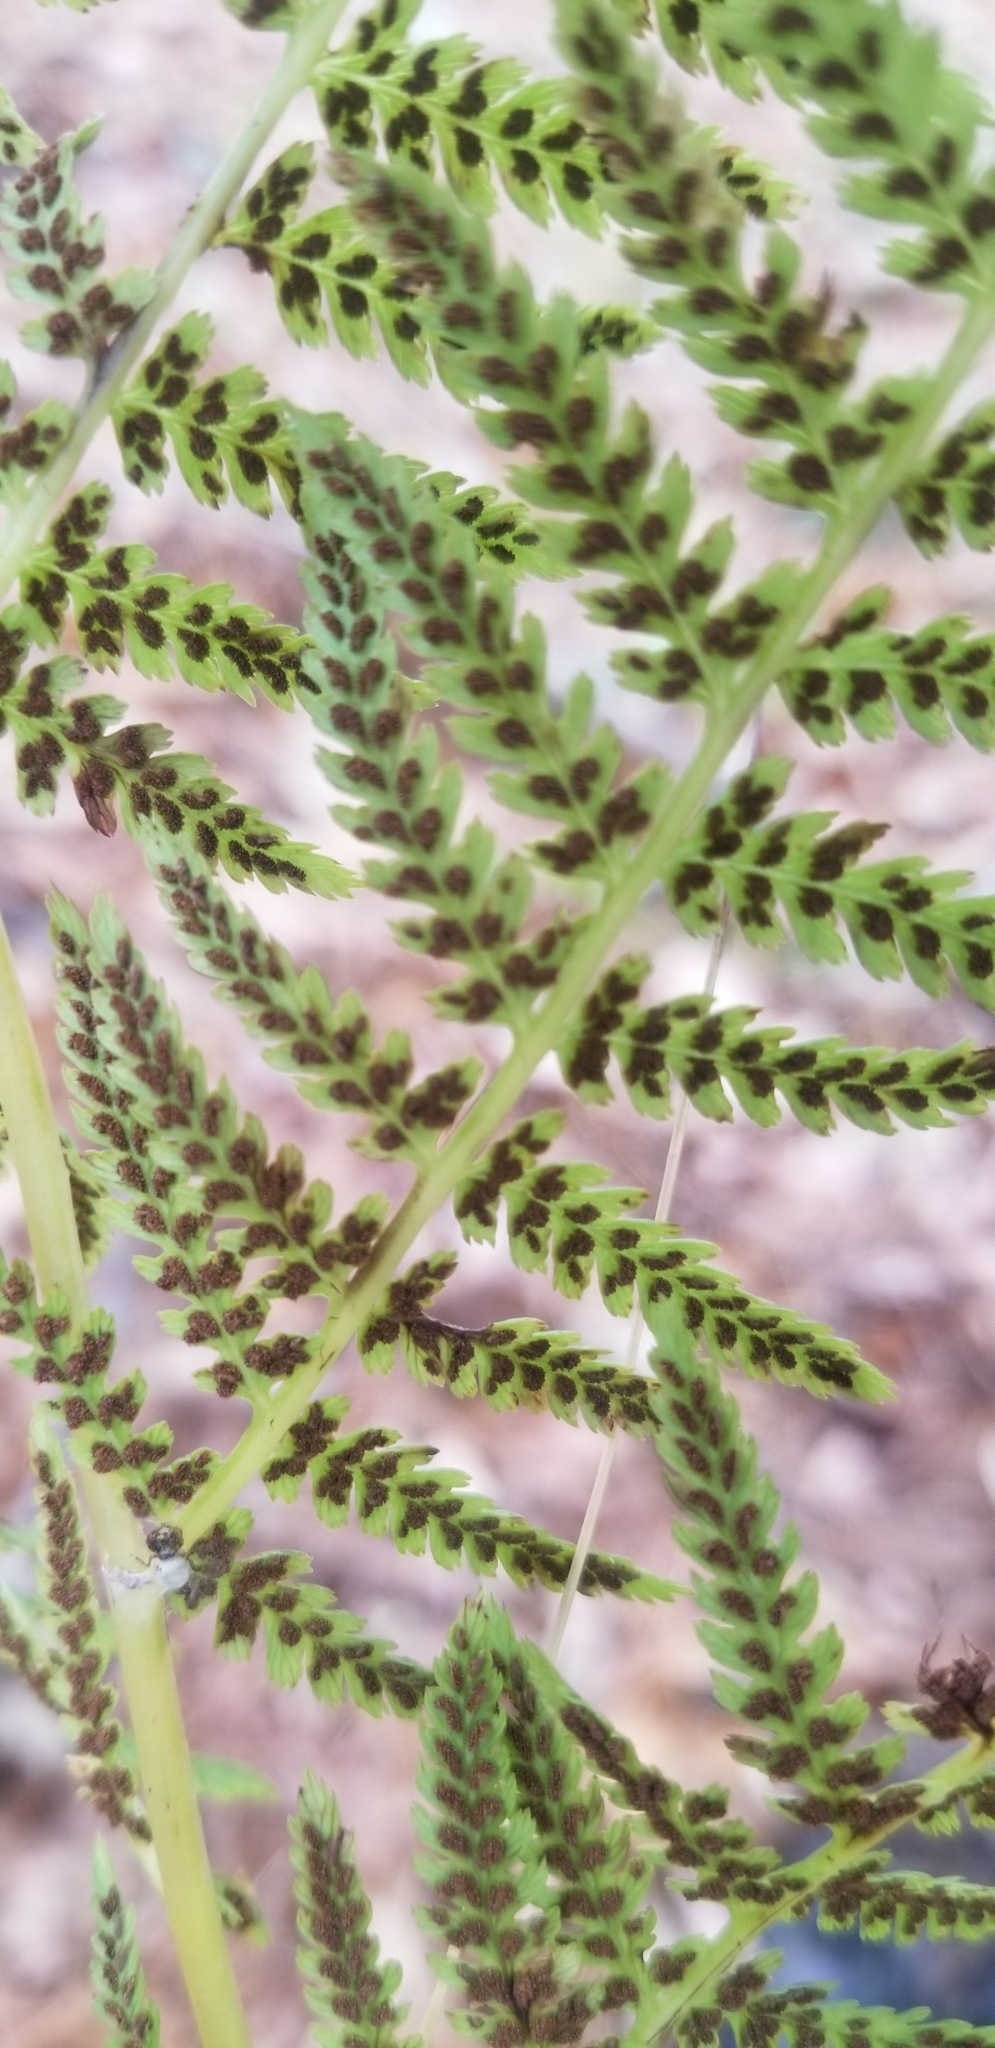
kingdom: Plantae
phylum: Tracheophyta
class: Polypodiopsida
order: Polypodiales
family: Athyriaceae
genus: Athyrium
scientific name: Athyrium angustum
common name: Northern lady fern
